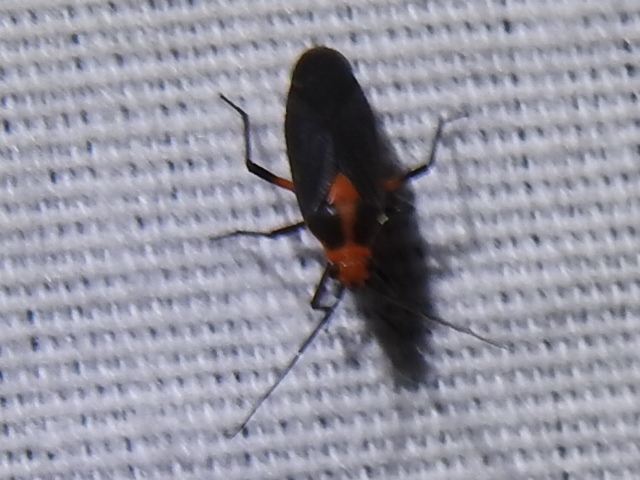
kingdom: Animalia
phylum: Arthropoda
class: Insecta
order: Hemiptera
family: Miridae
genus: Prepops
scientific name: Prepops rubrovittatus
